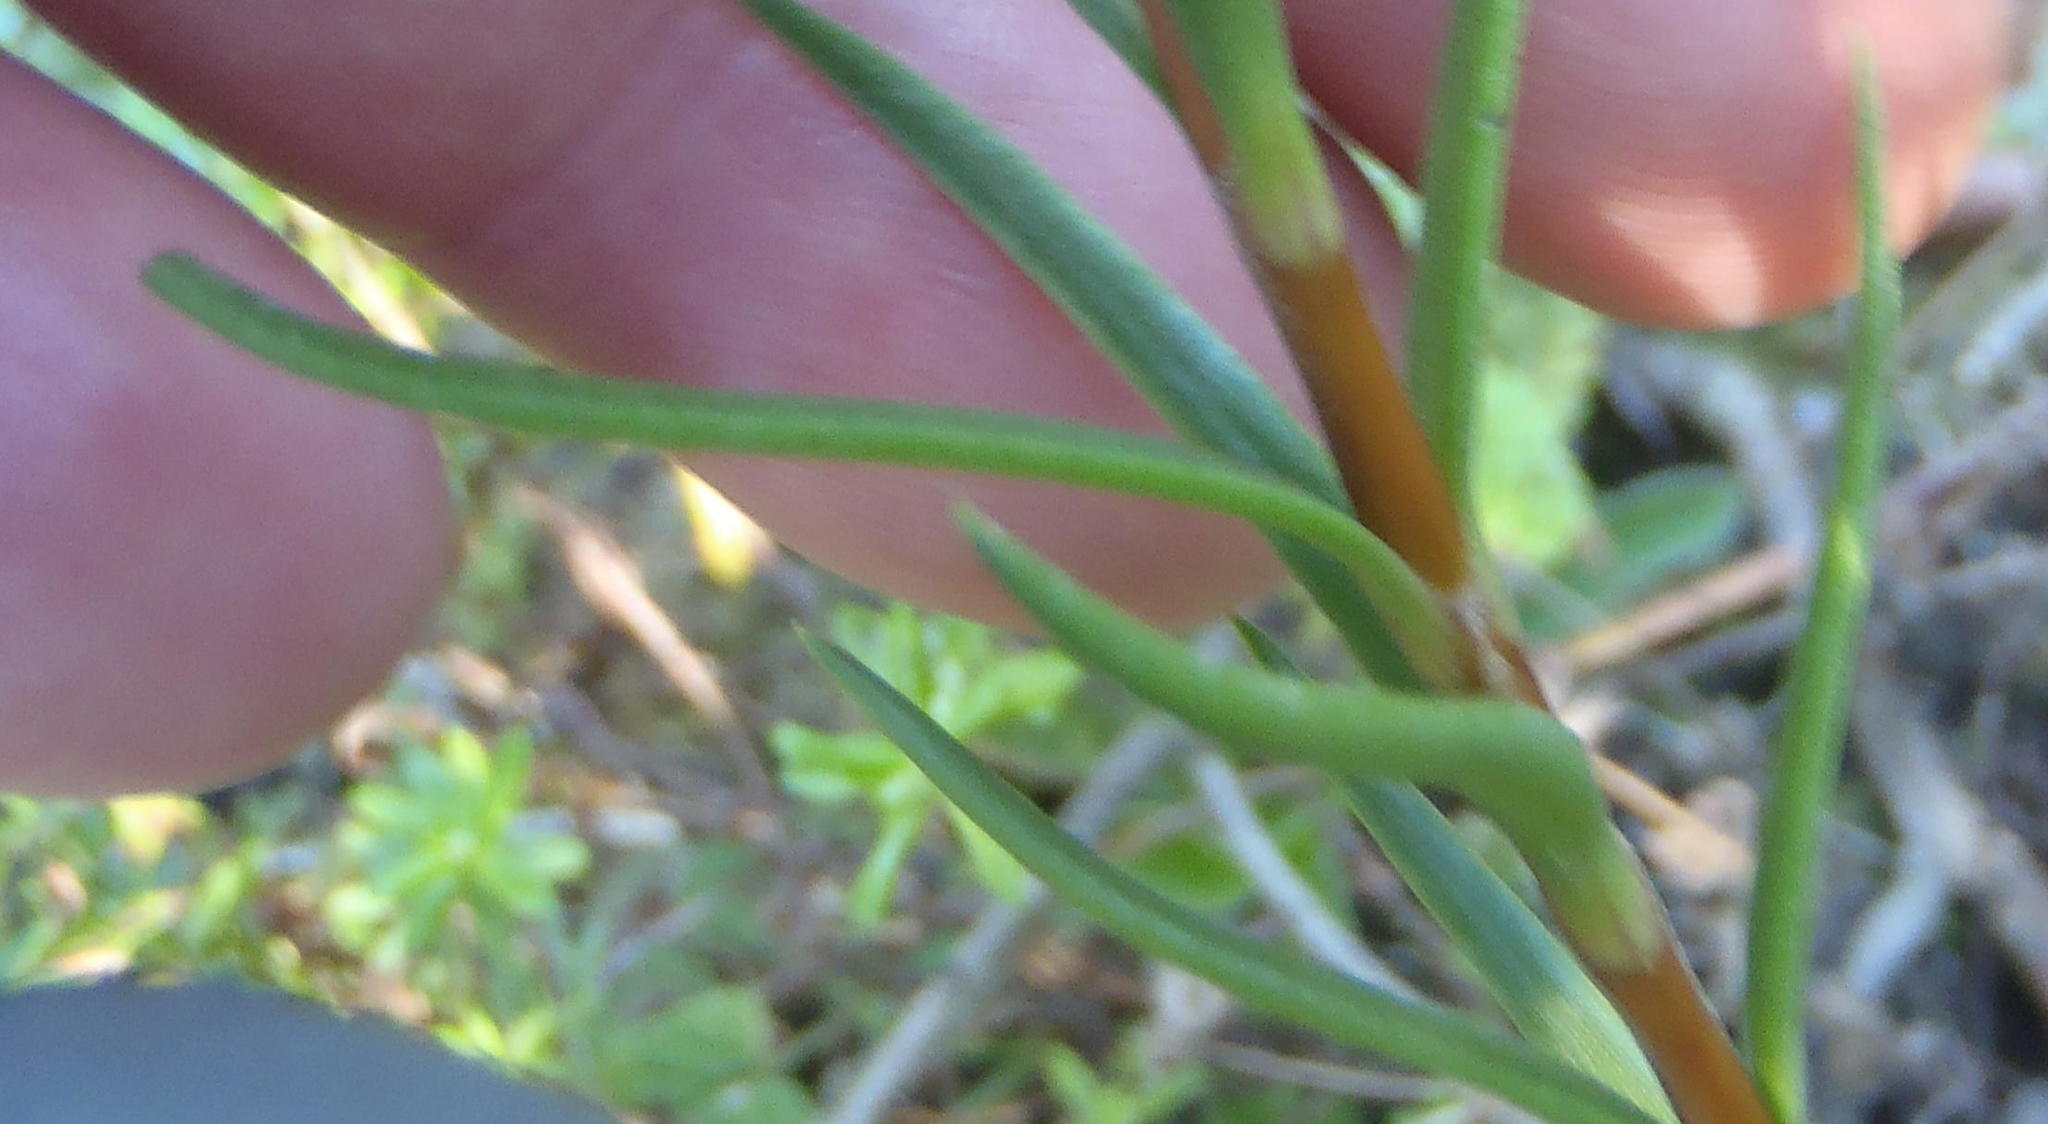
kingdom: Plantae
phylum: Tracheophyta
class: Magnoliopsida
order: Saxifragales
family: Crassulaceae
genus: Crassula
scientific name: Crassula subulata
